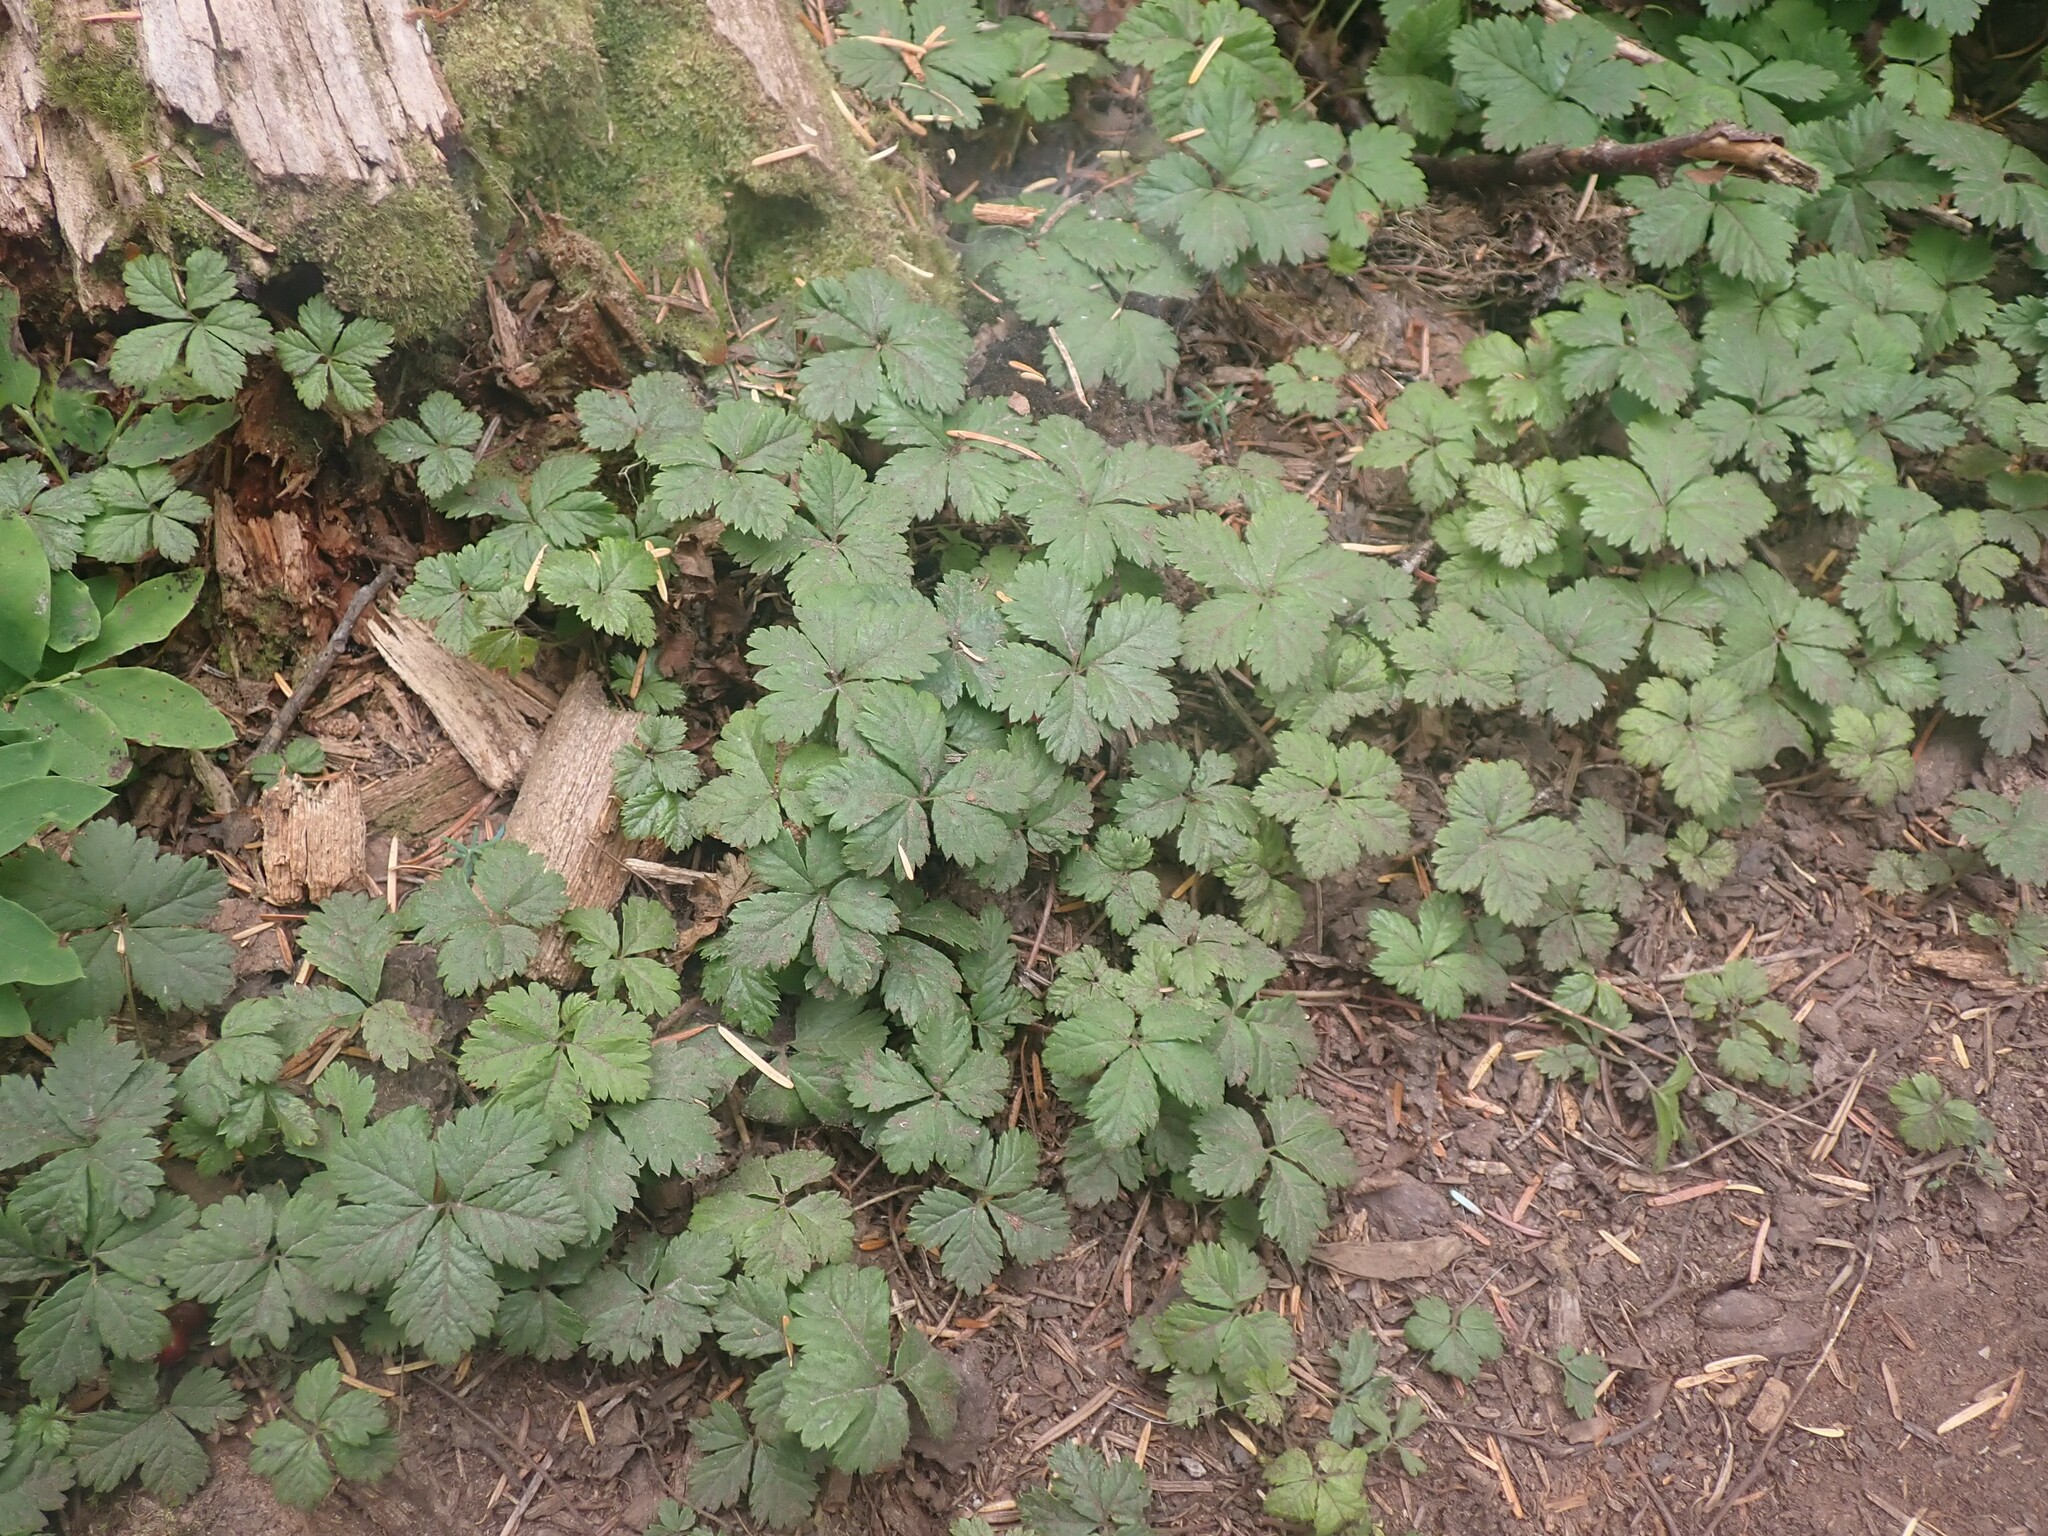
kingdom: Plantae
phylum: Tracheophyta
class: Magnoliopsida
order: Rosales
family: Rosaceae
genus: Rubus
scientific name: Rubus pedatus
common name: Creeping raspberry
